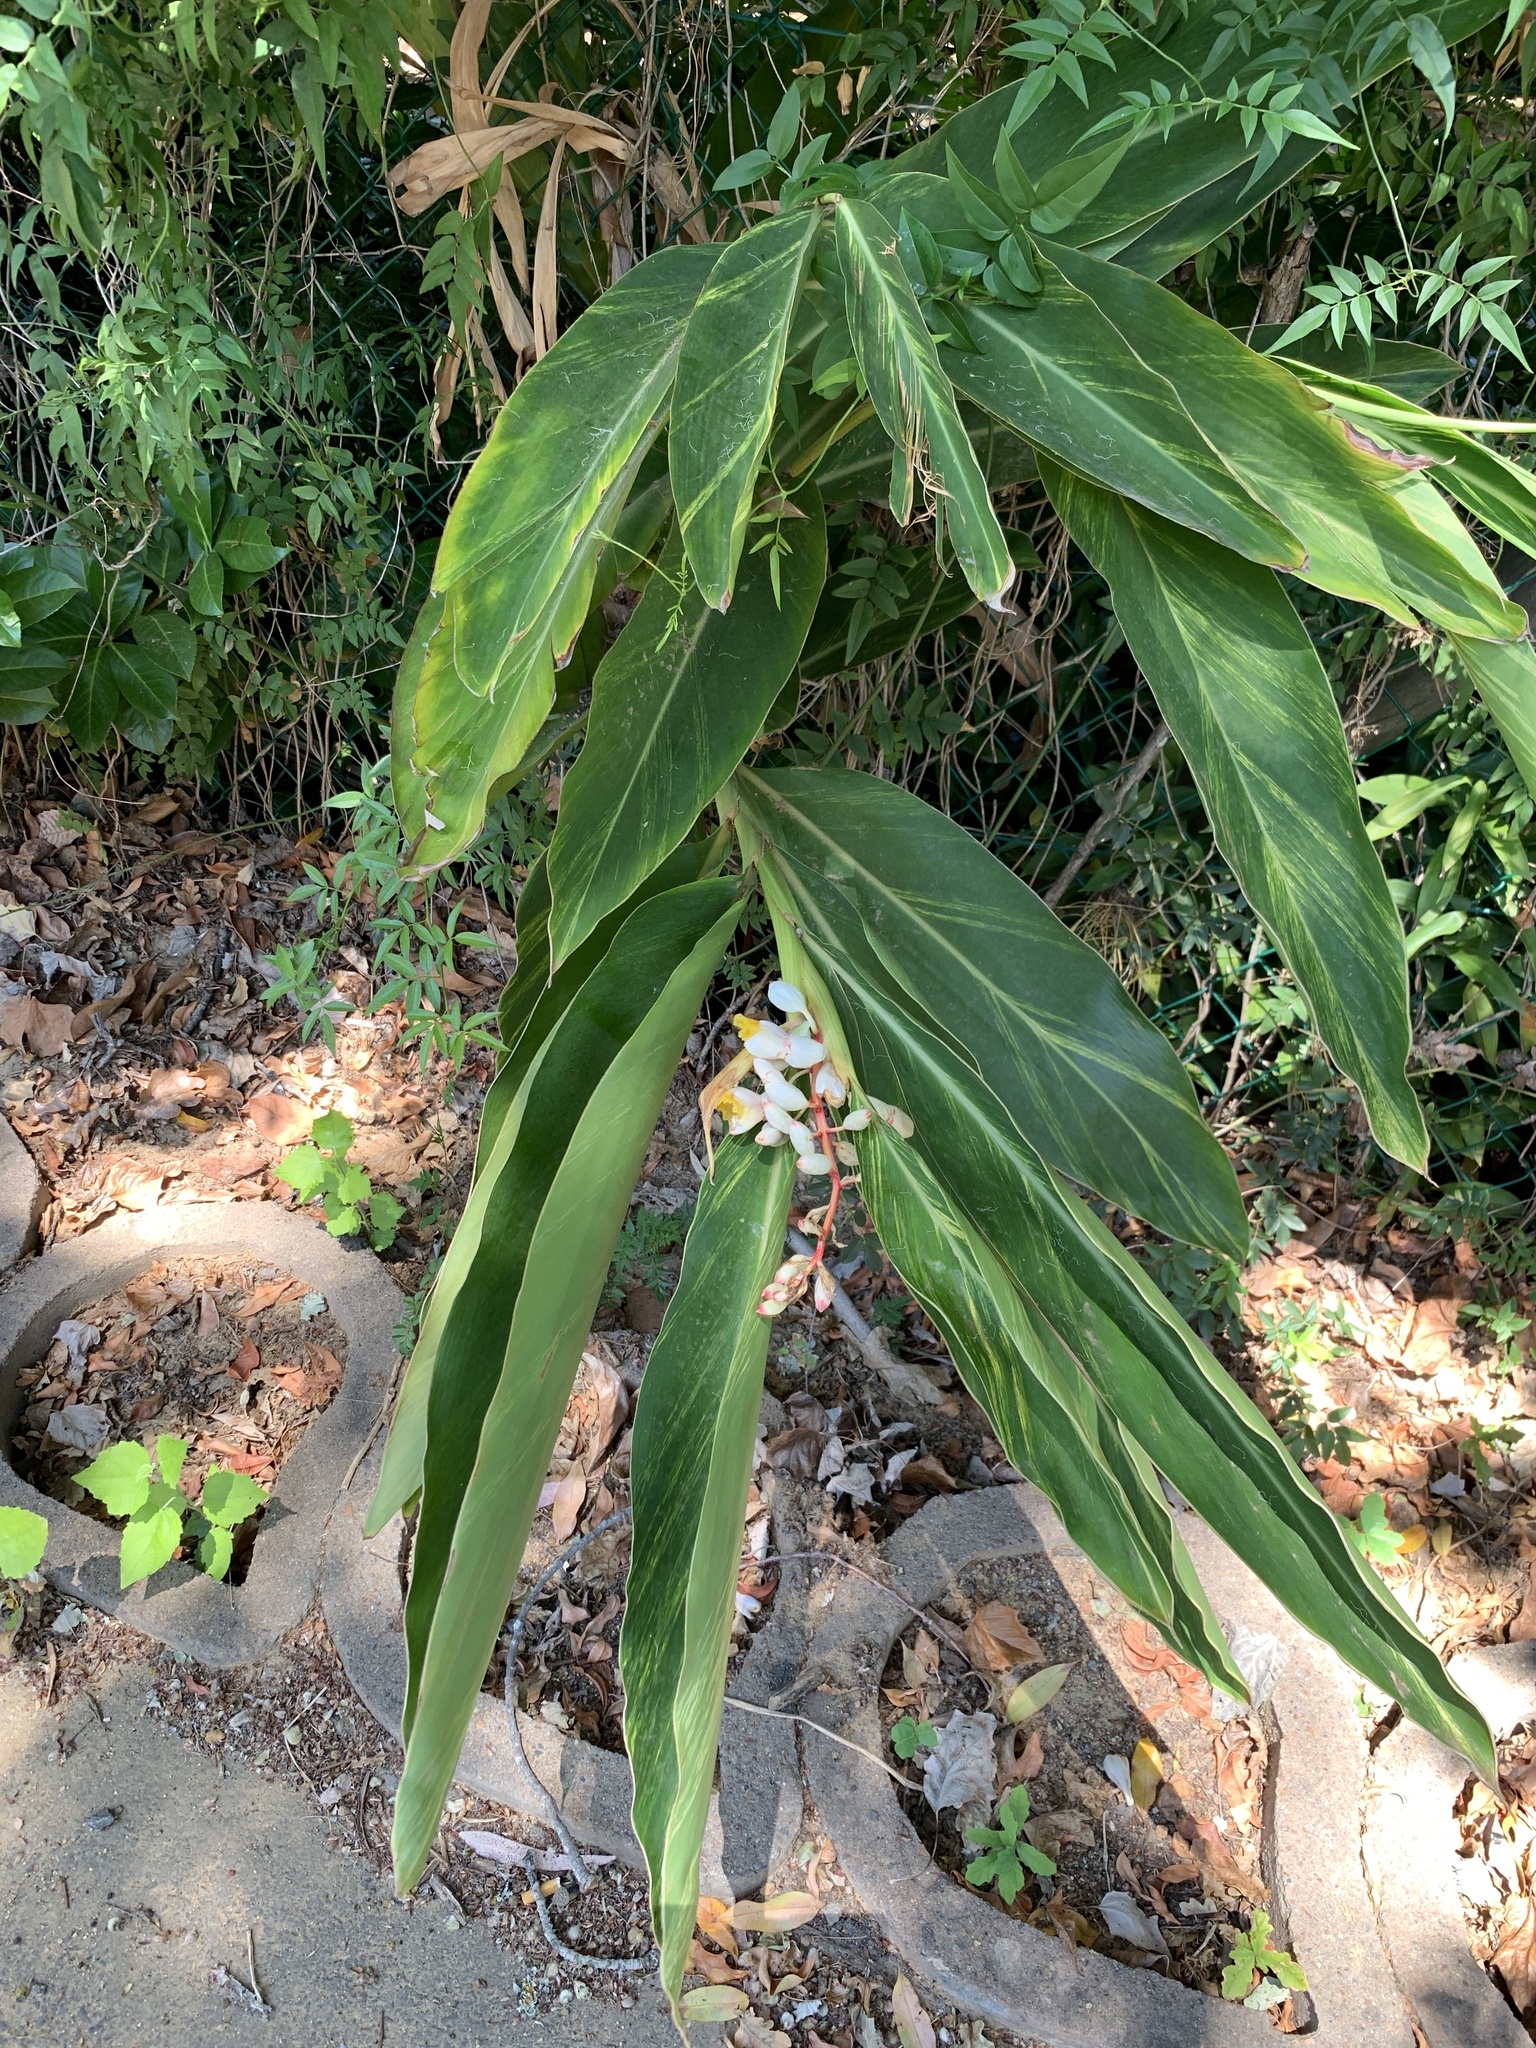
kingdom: Plantae
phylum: Tracheophyta
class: Liliopsida
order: Zingiberales
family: Zingiberaceae
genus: Alpinia
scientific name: Alpinia zerumbet
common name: Shellplant
